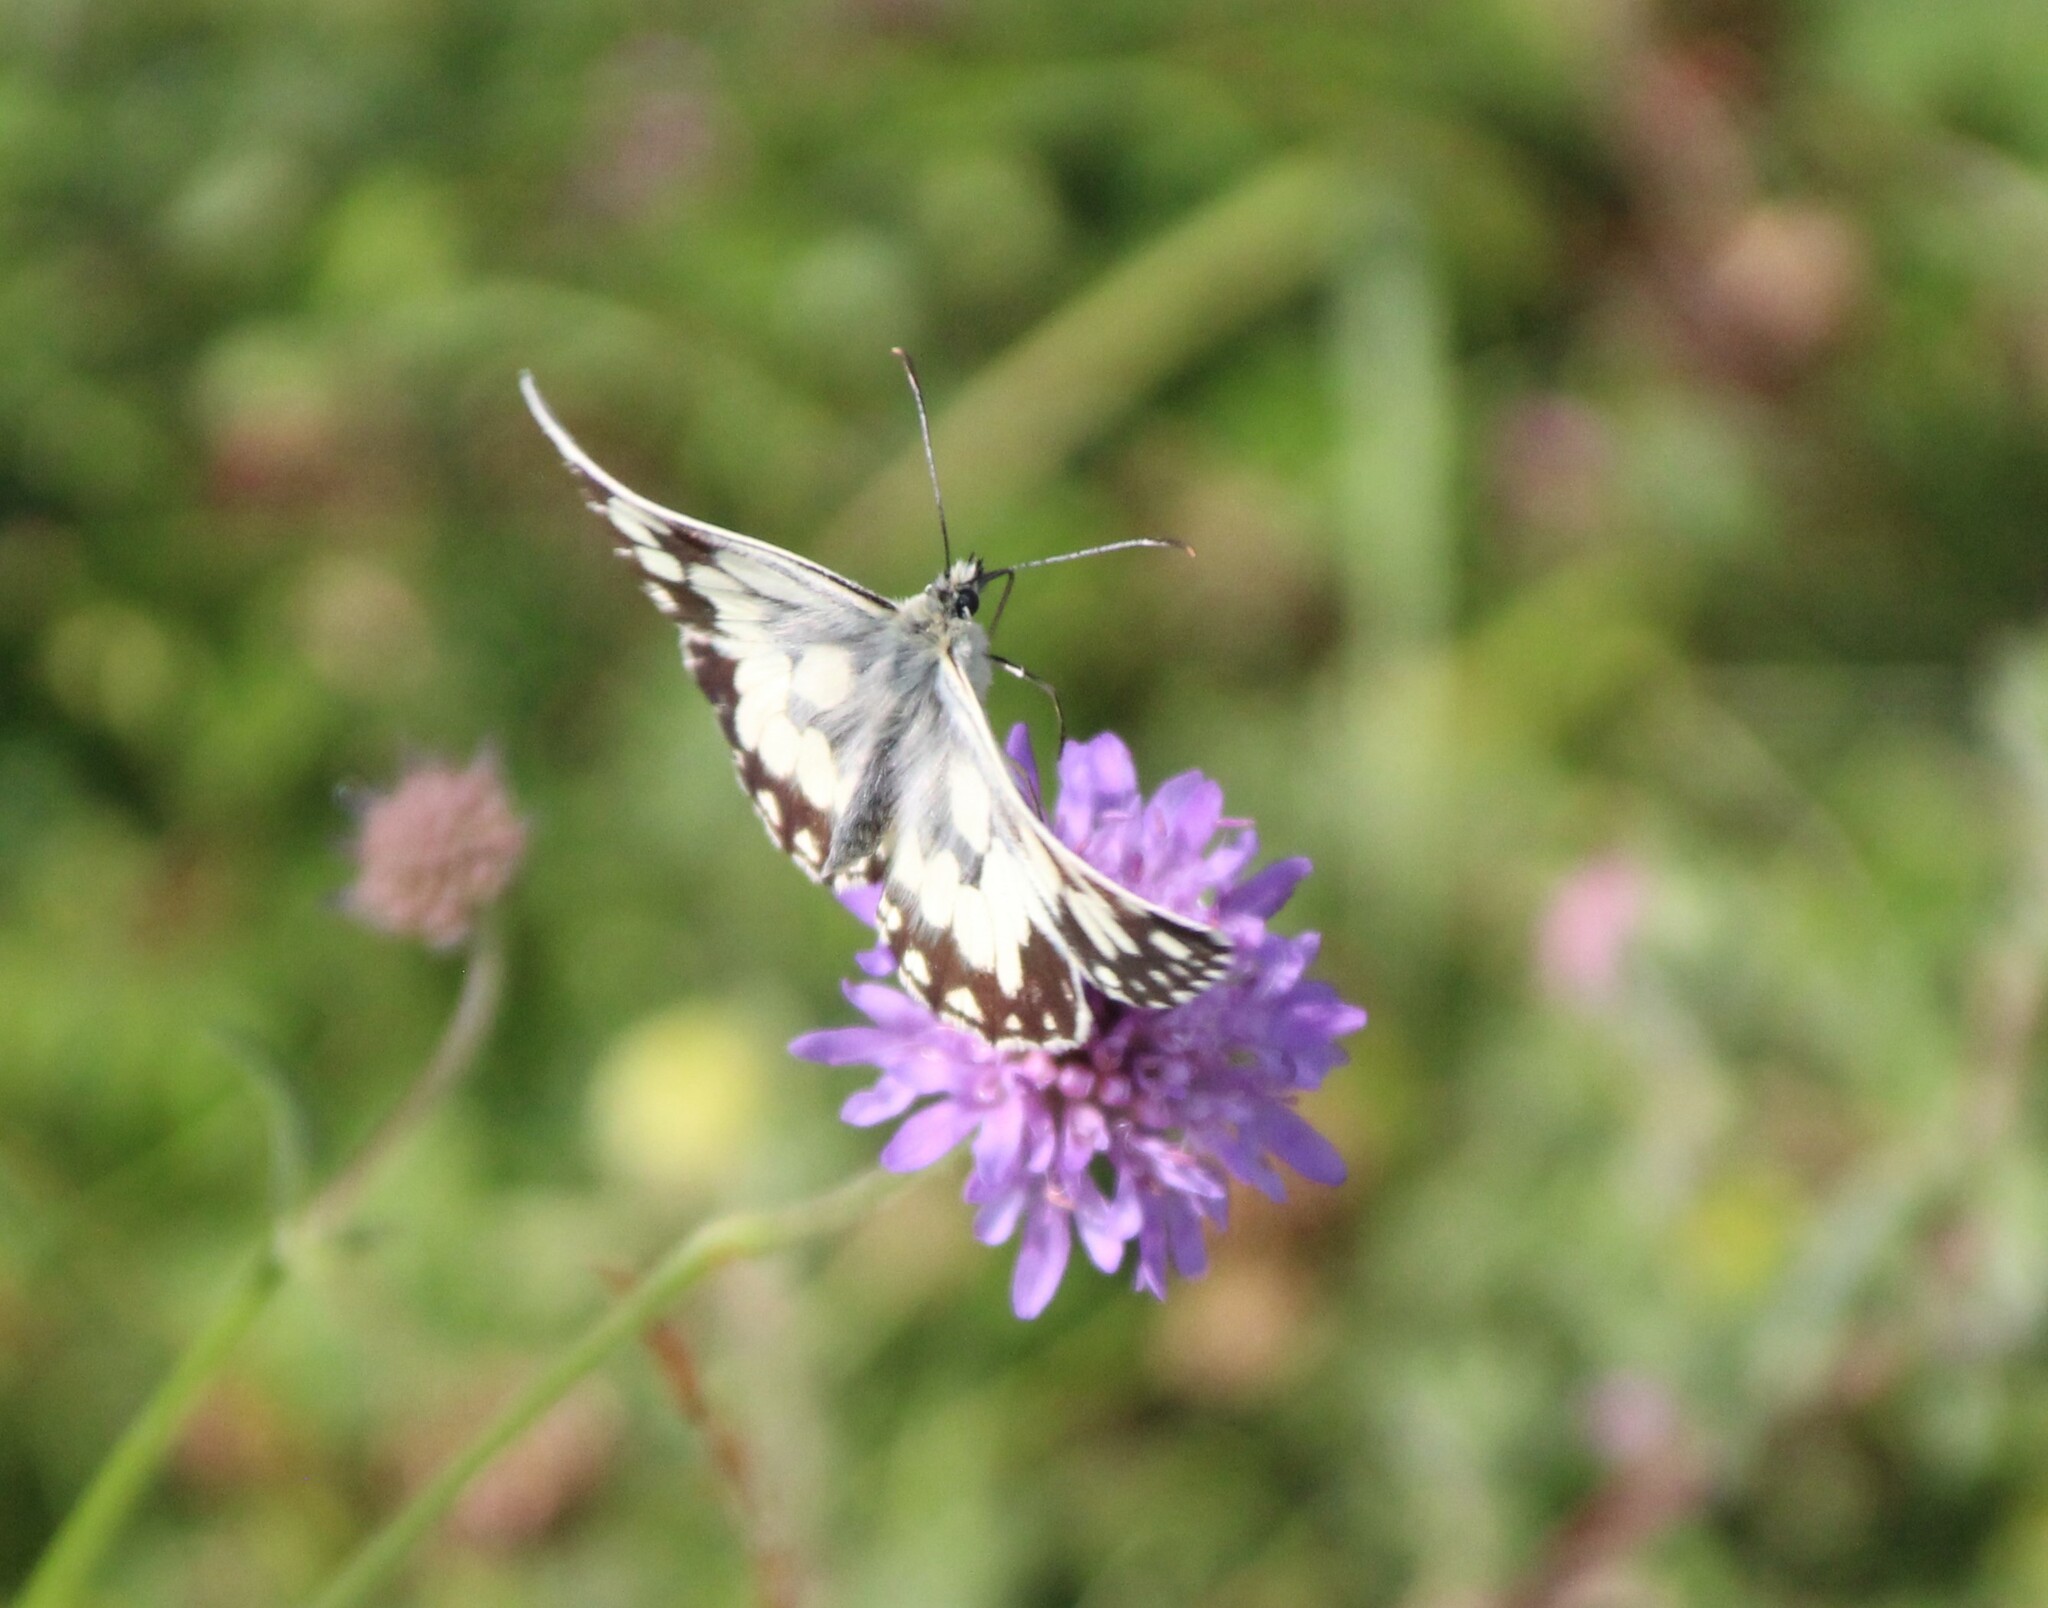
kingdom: Animalia
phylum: Arthropoda
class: Insecta
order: Lepidoptera
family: Nymphalidae
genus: Melanargia
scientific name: Melanargia galathea
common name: Marbled white
